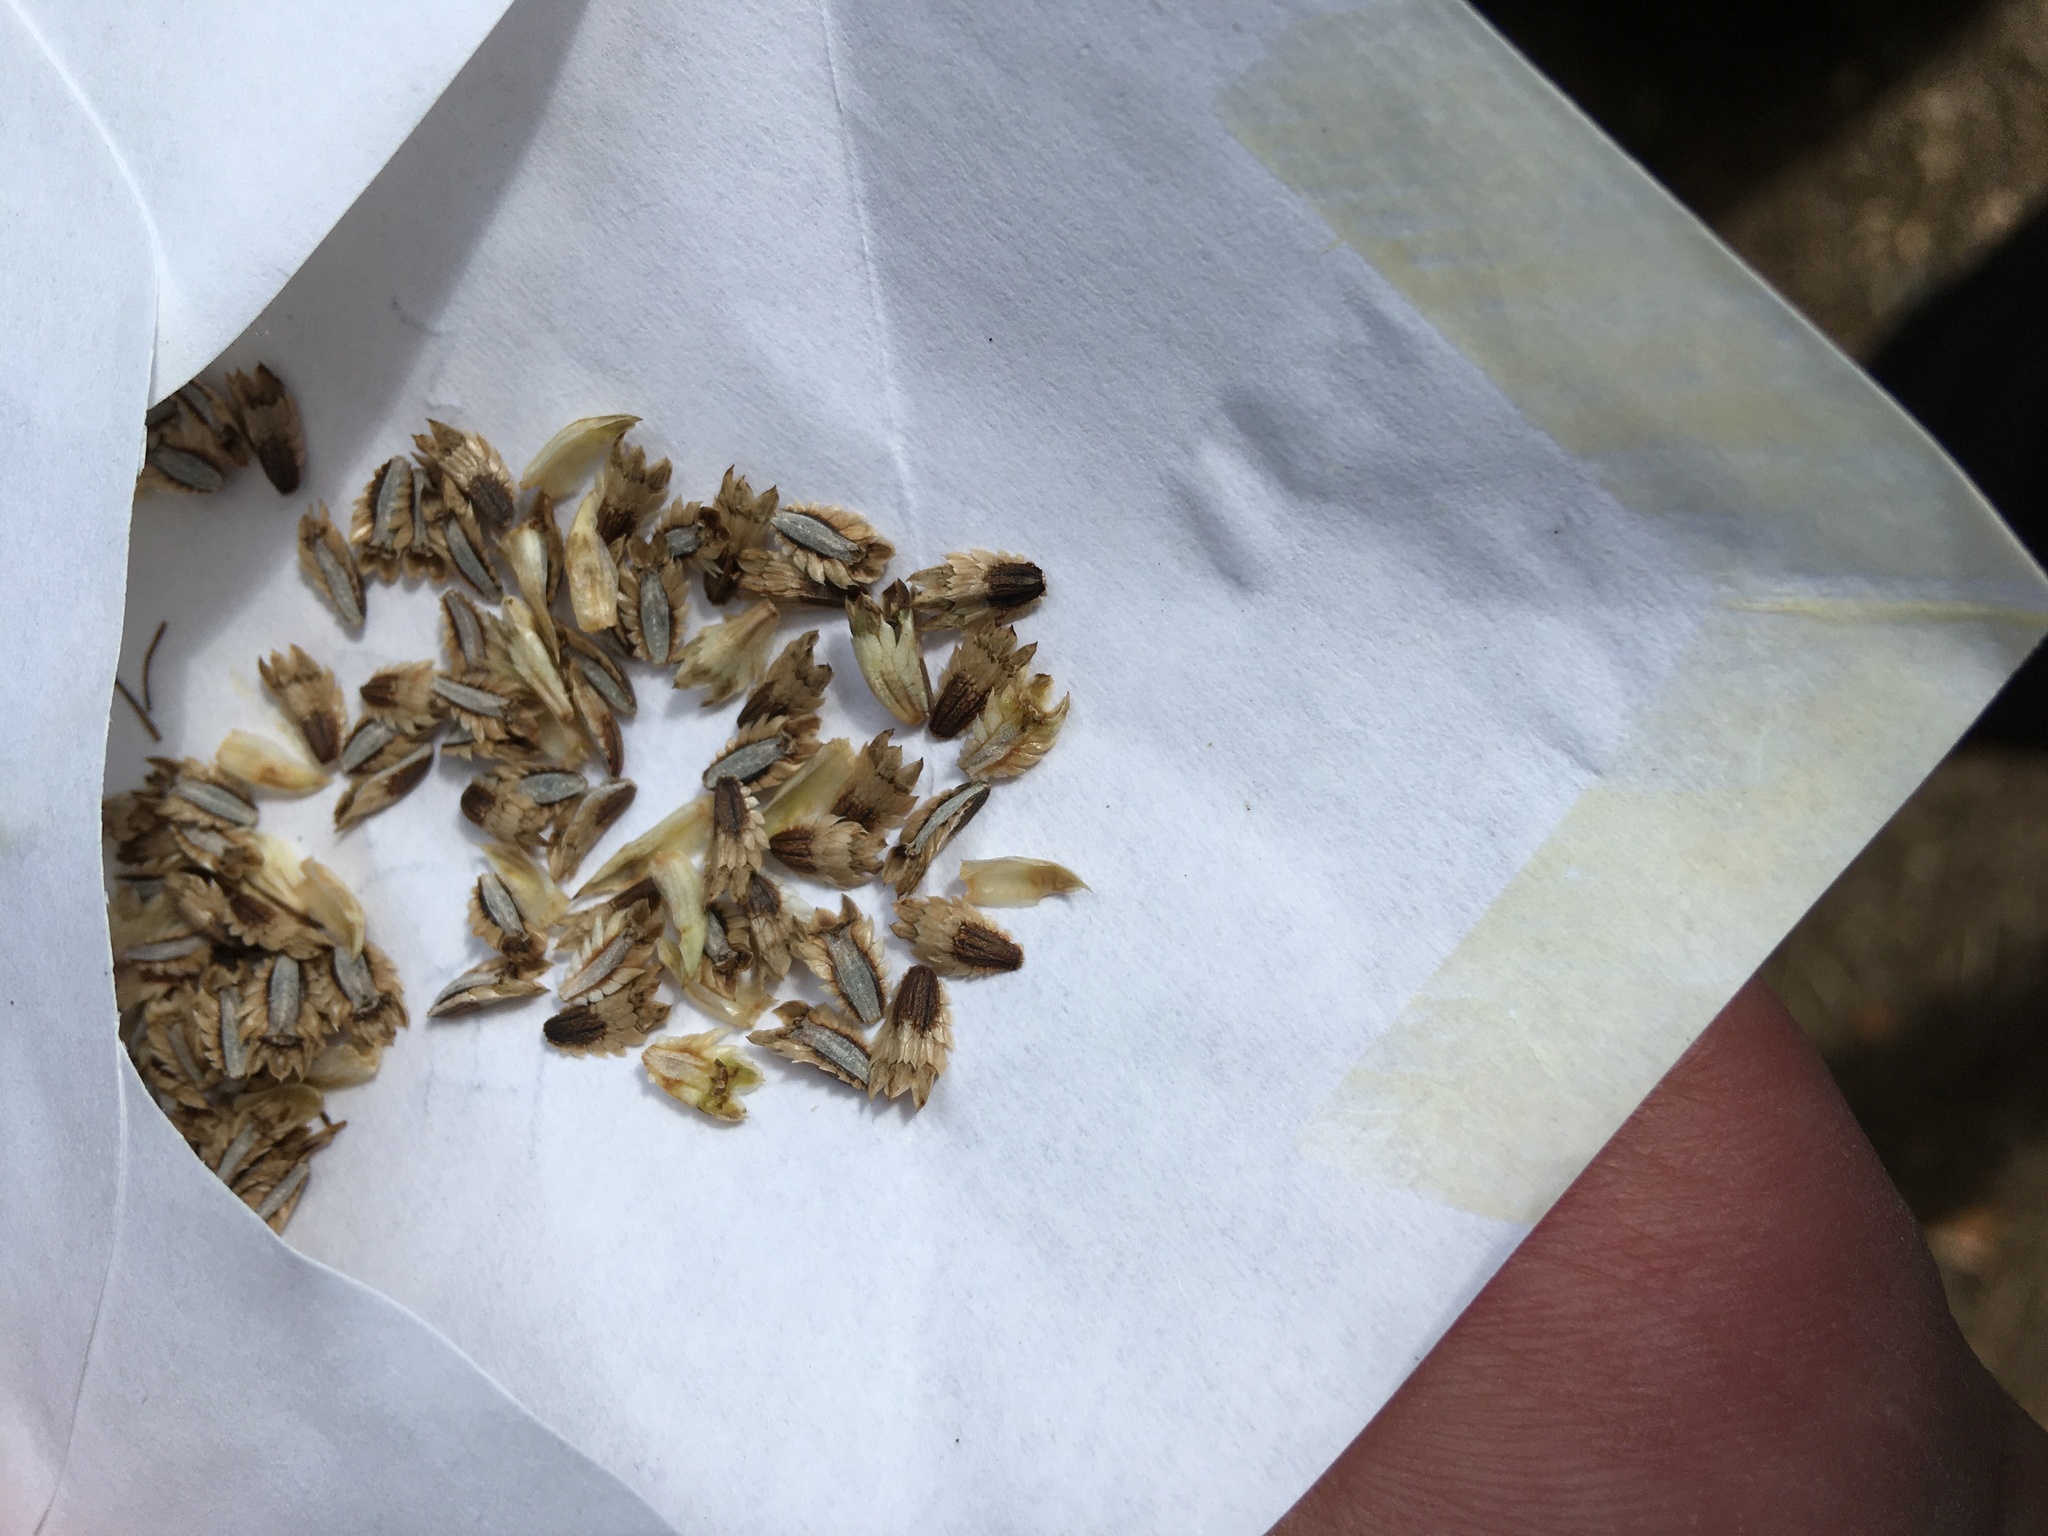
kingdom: Plantae
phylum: Tracheophyta
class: Magnoliopsida
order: Apiales
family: Apiaceae
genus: Eryngium
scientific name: Eryngium yuccifolium
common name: Button eryngo
